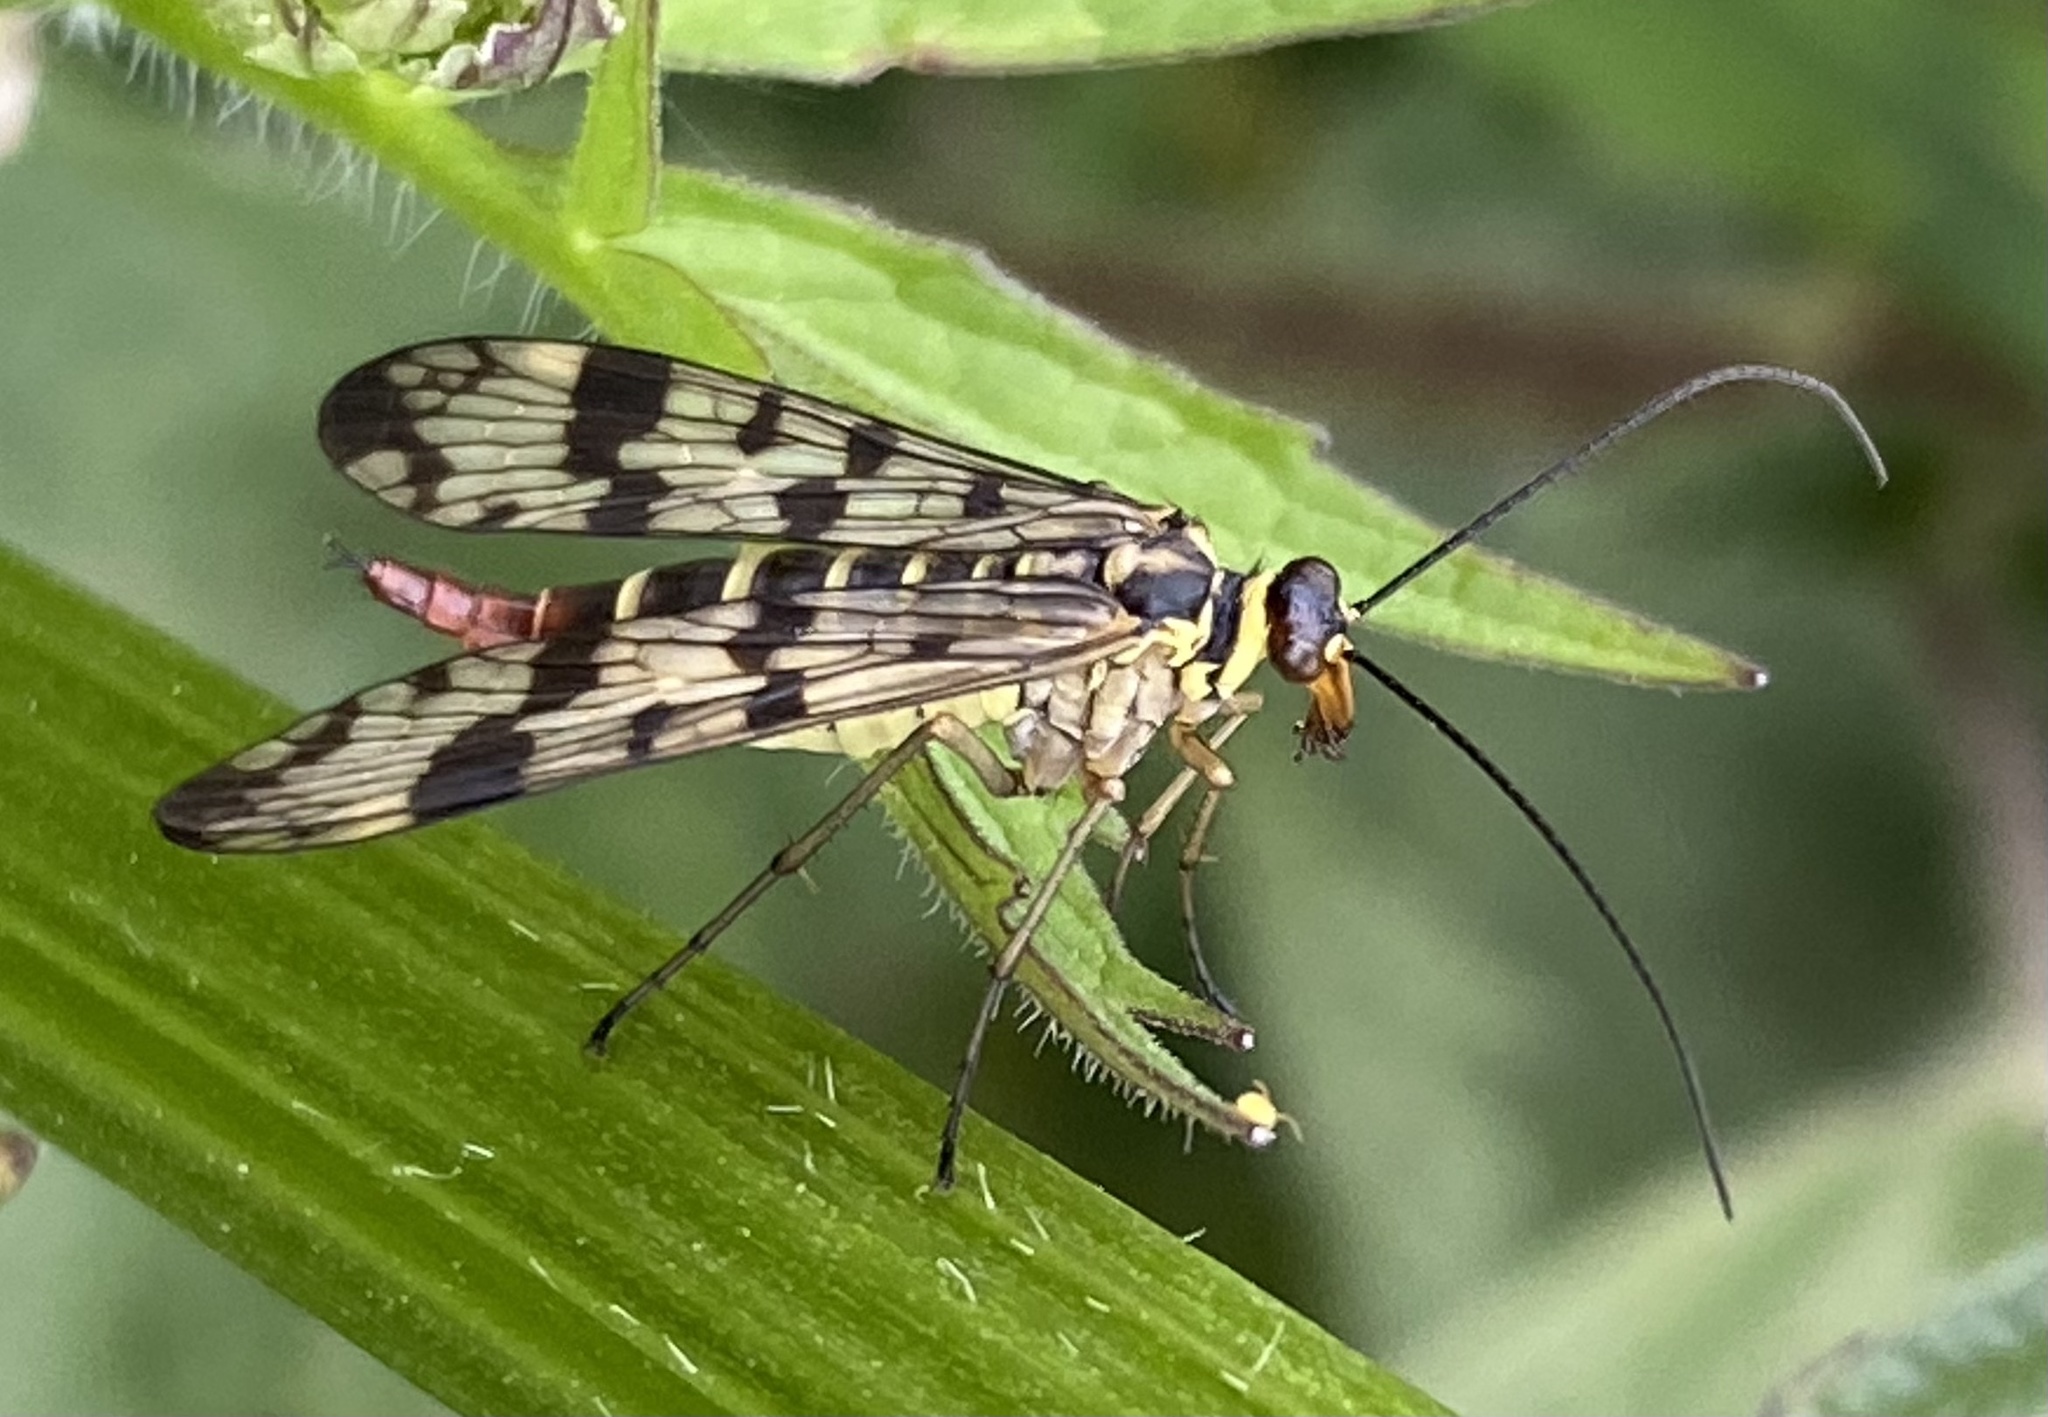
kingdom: Animalia
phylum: Arthropoda
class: Insecta
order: Mecoptera
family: Panorpidae
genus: Panorpa
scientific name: Panorpa communis
